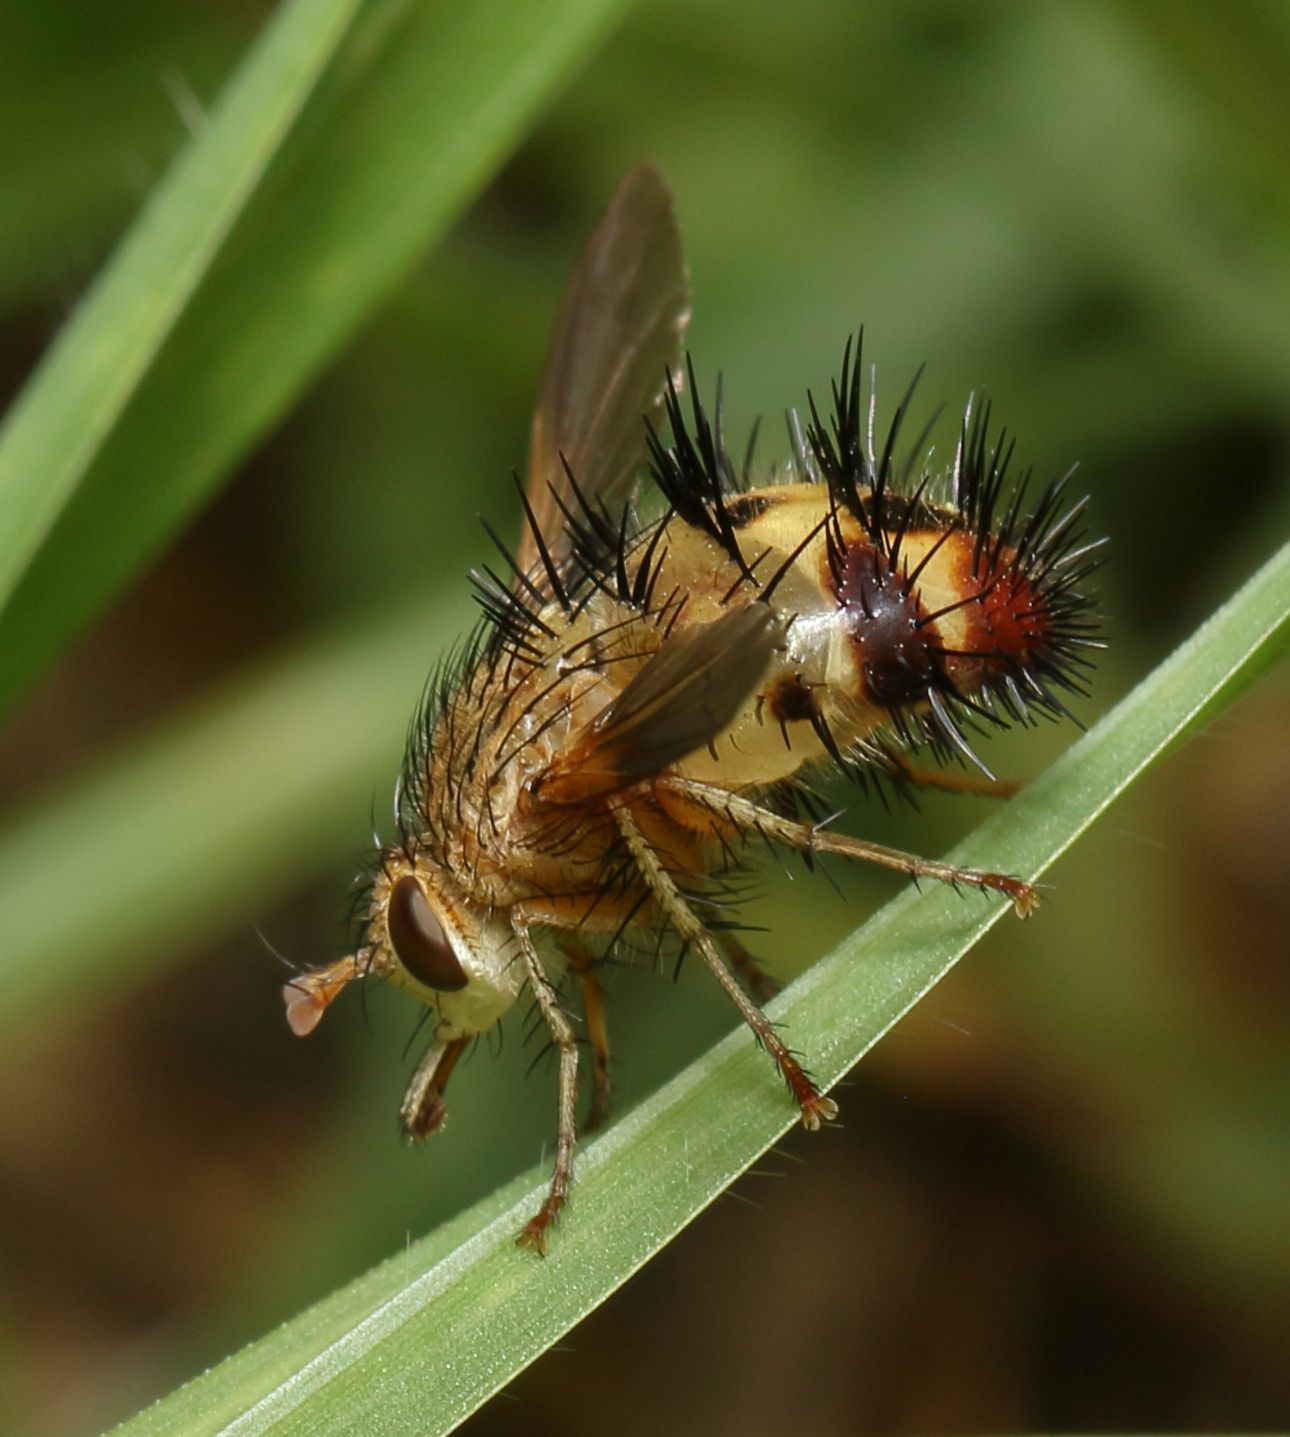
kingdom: Animalia
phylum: Arthropoda
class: Insecta
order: Diptera
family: Tachinidae
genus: Dejeania
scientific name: Dejeania bombylans
